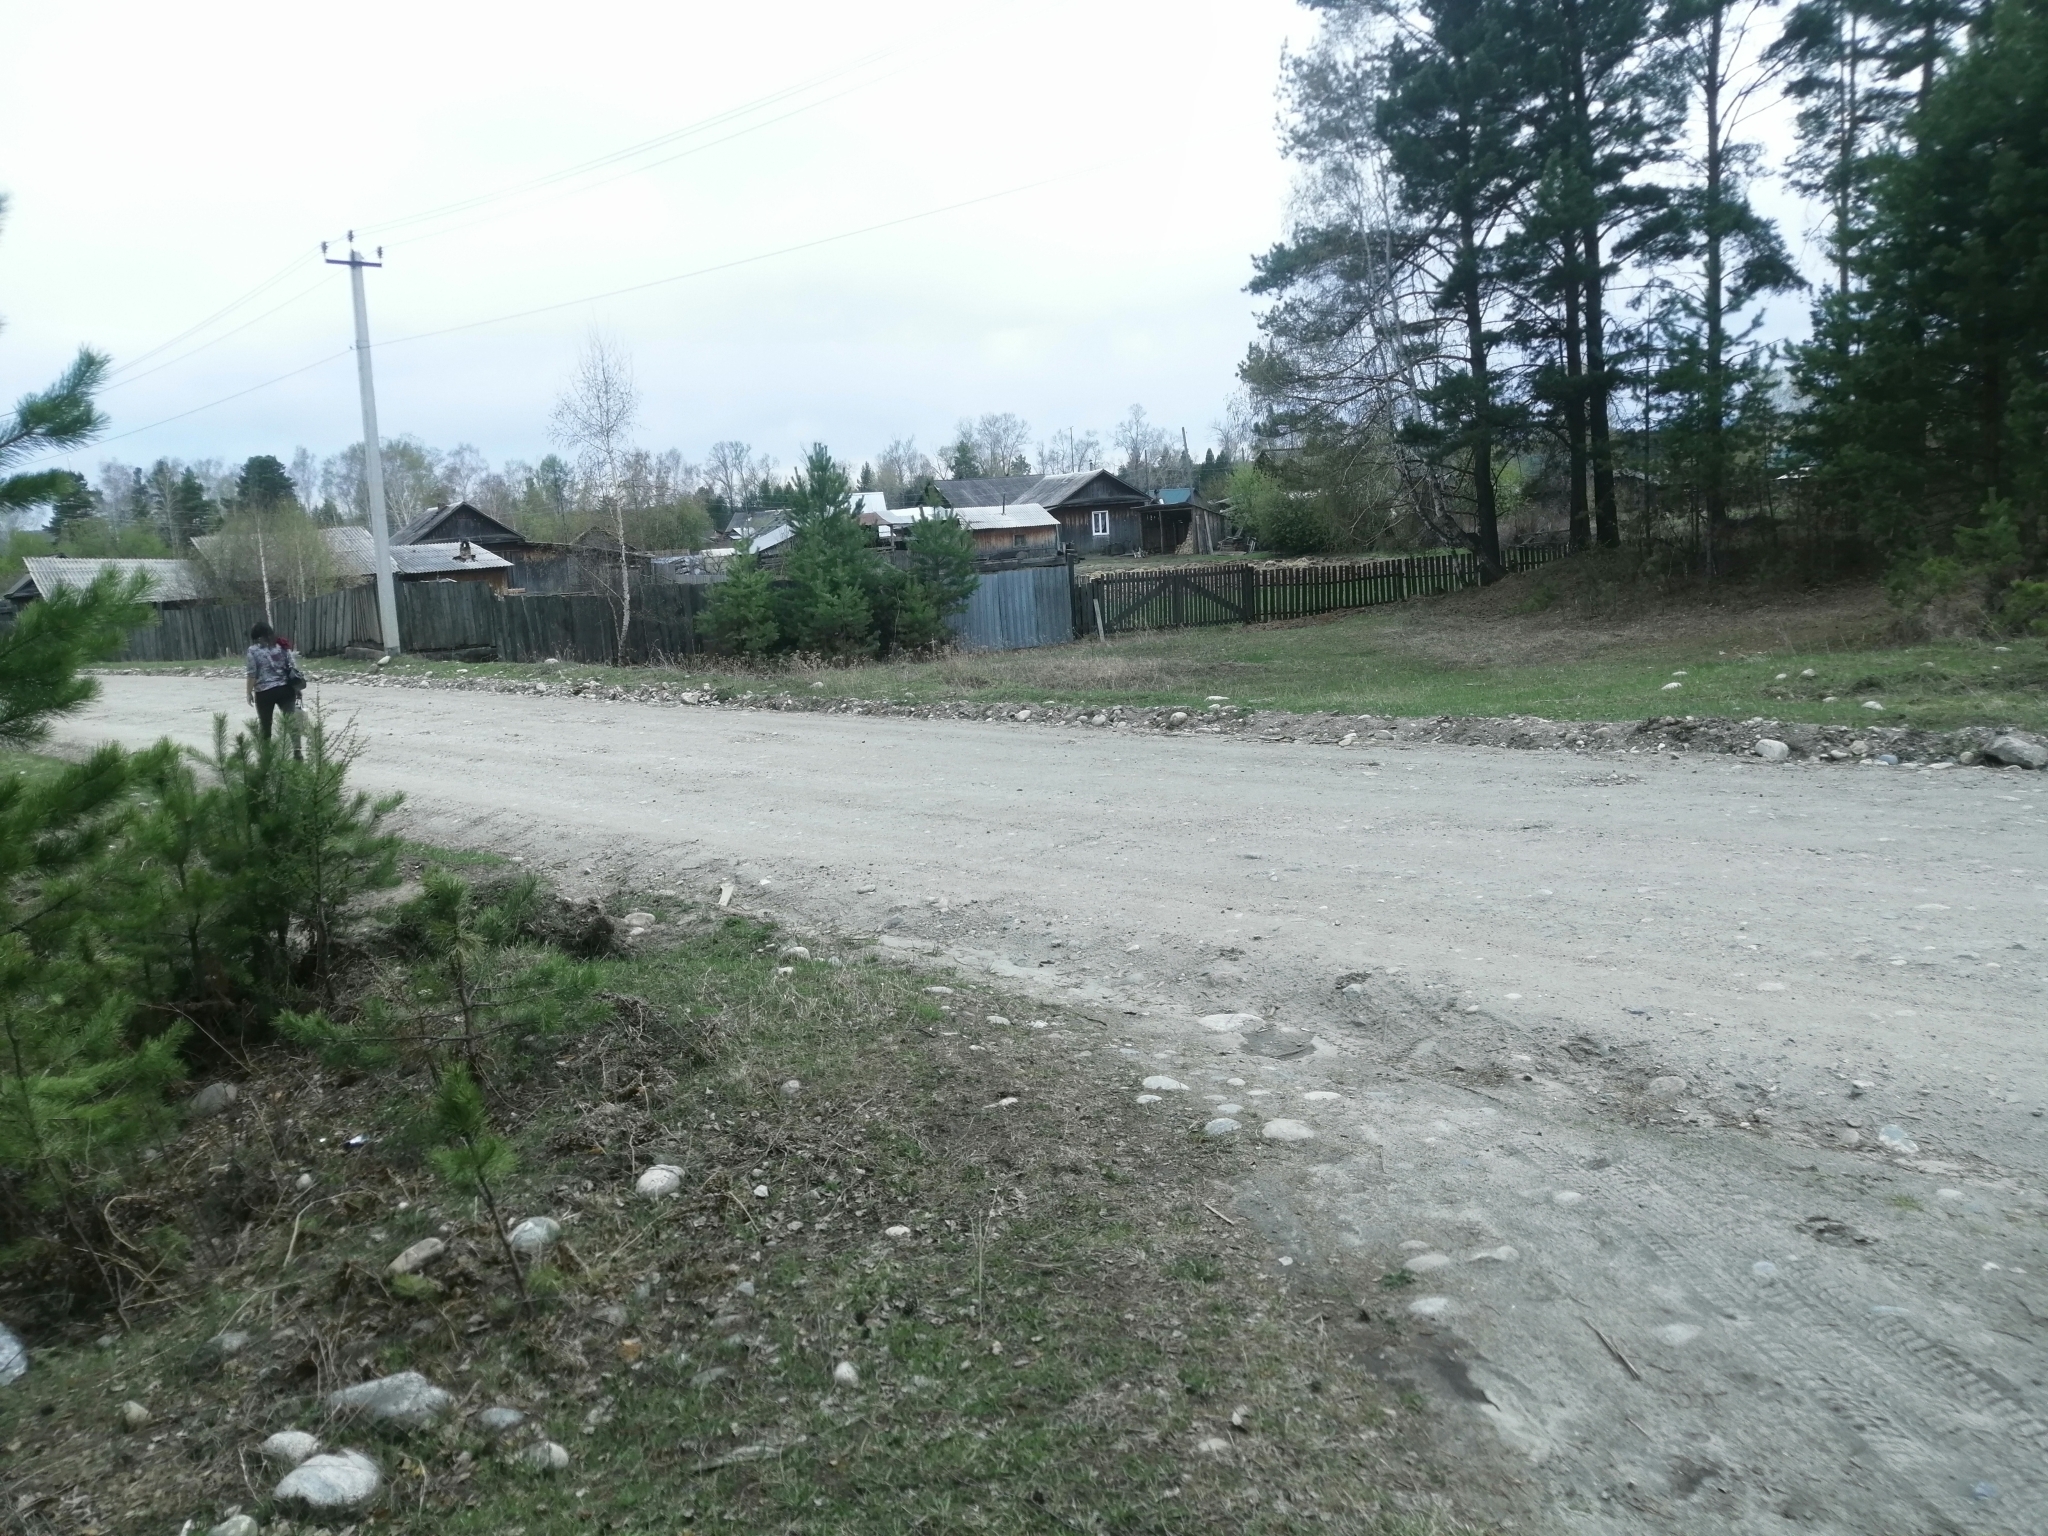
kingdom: Plantae
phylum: Tracheophyta
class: Pinopsida
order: Pinales
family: Pinaceae
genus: Pinus
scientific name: Pinus sylvestris
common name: Scots pine
